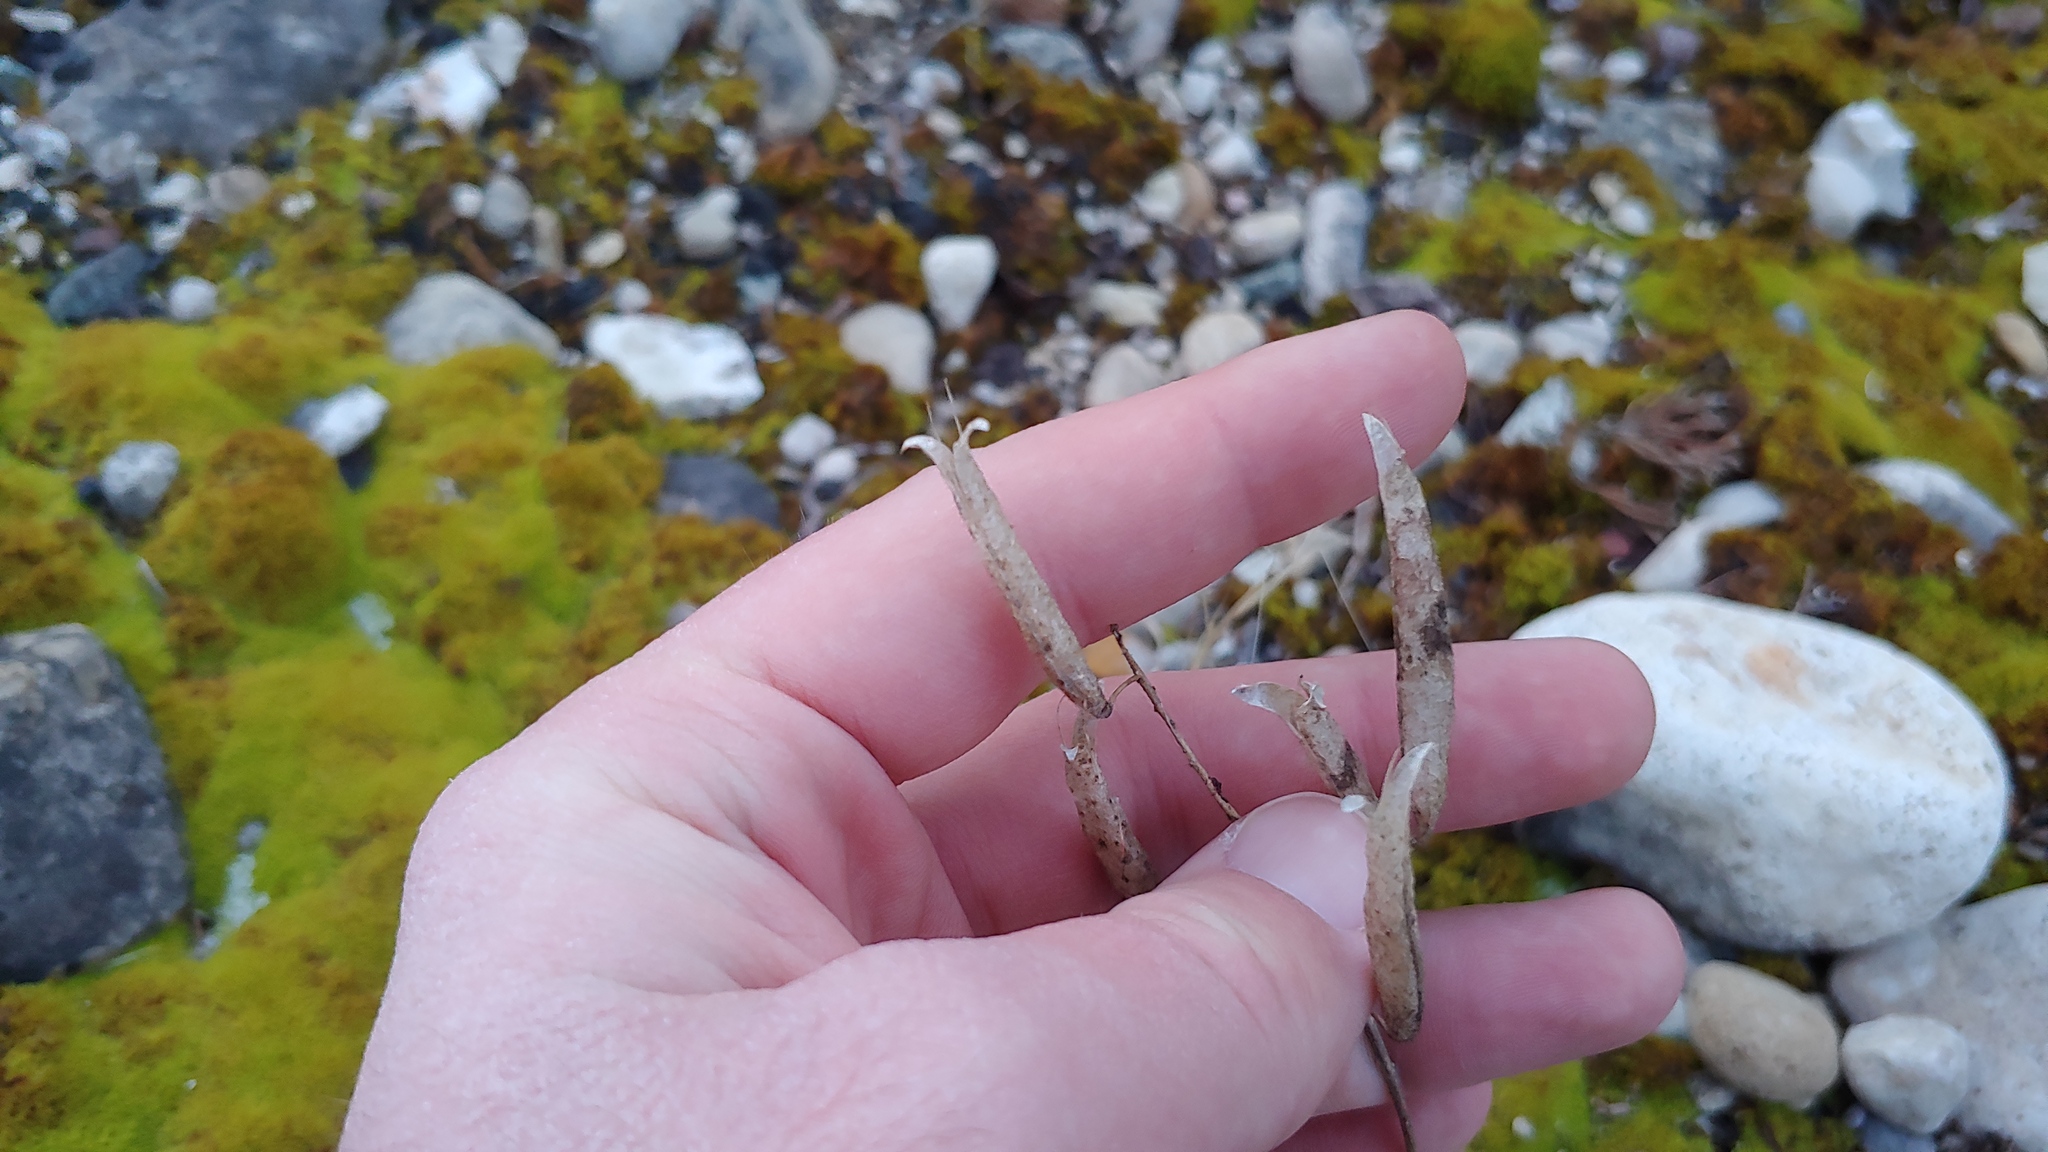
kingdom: Plantae
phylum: Tracheophyta
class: Magnoliopsida
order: Brassicales
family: Cleomaceae
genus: Polanisia
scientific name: Polanisia dodecandra
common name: Clammyweed
